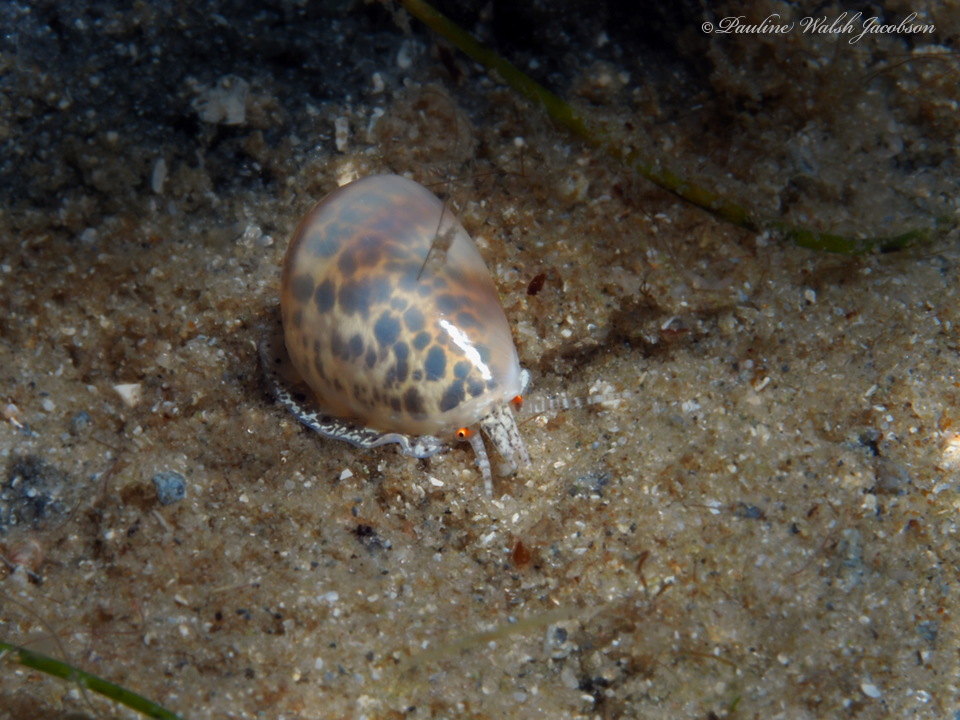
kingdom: Animalia
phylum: Mollusca
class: Gastropoda
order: Neogastropoda
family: Marginellidae
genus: Prunum
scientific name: Prunum apicinum
